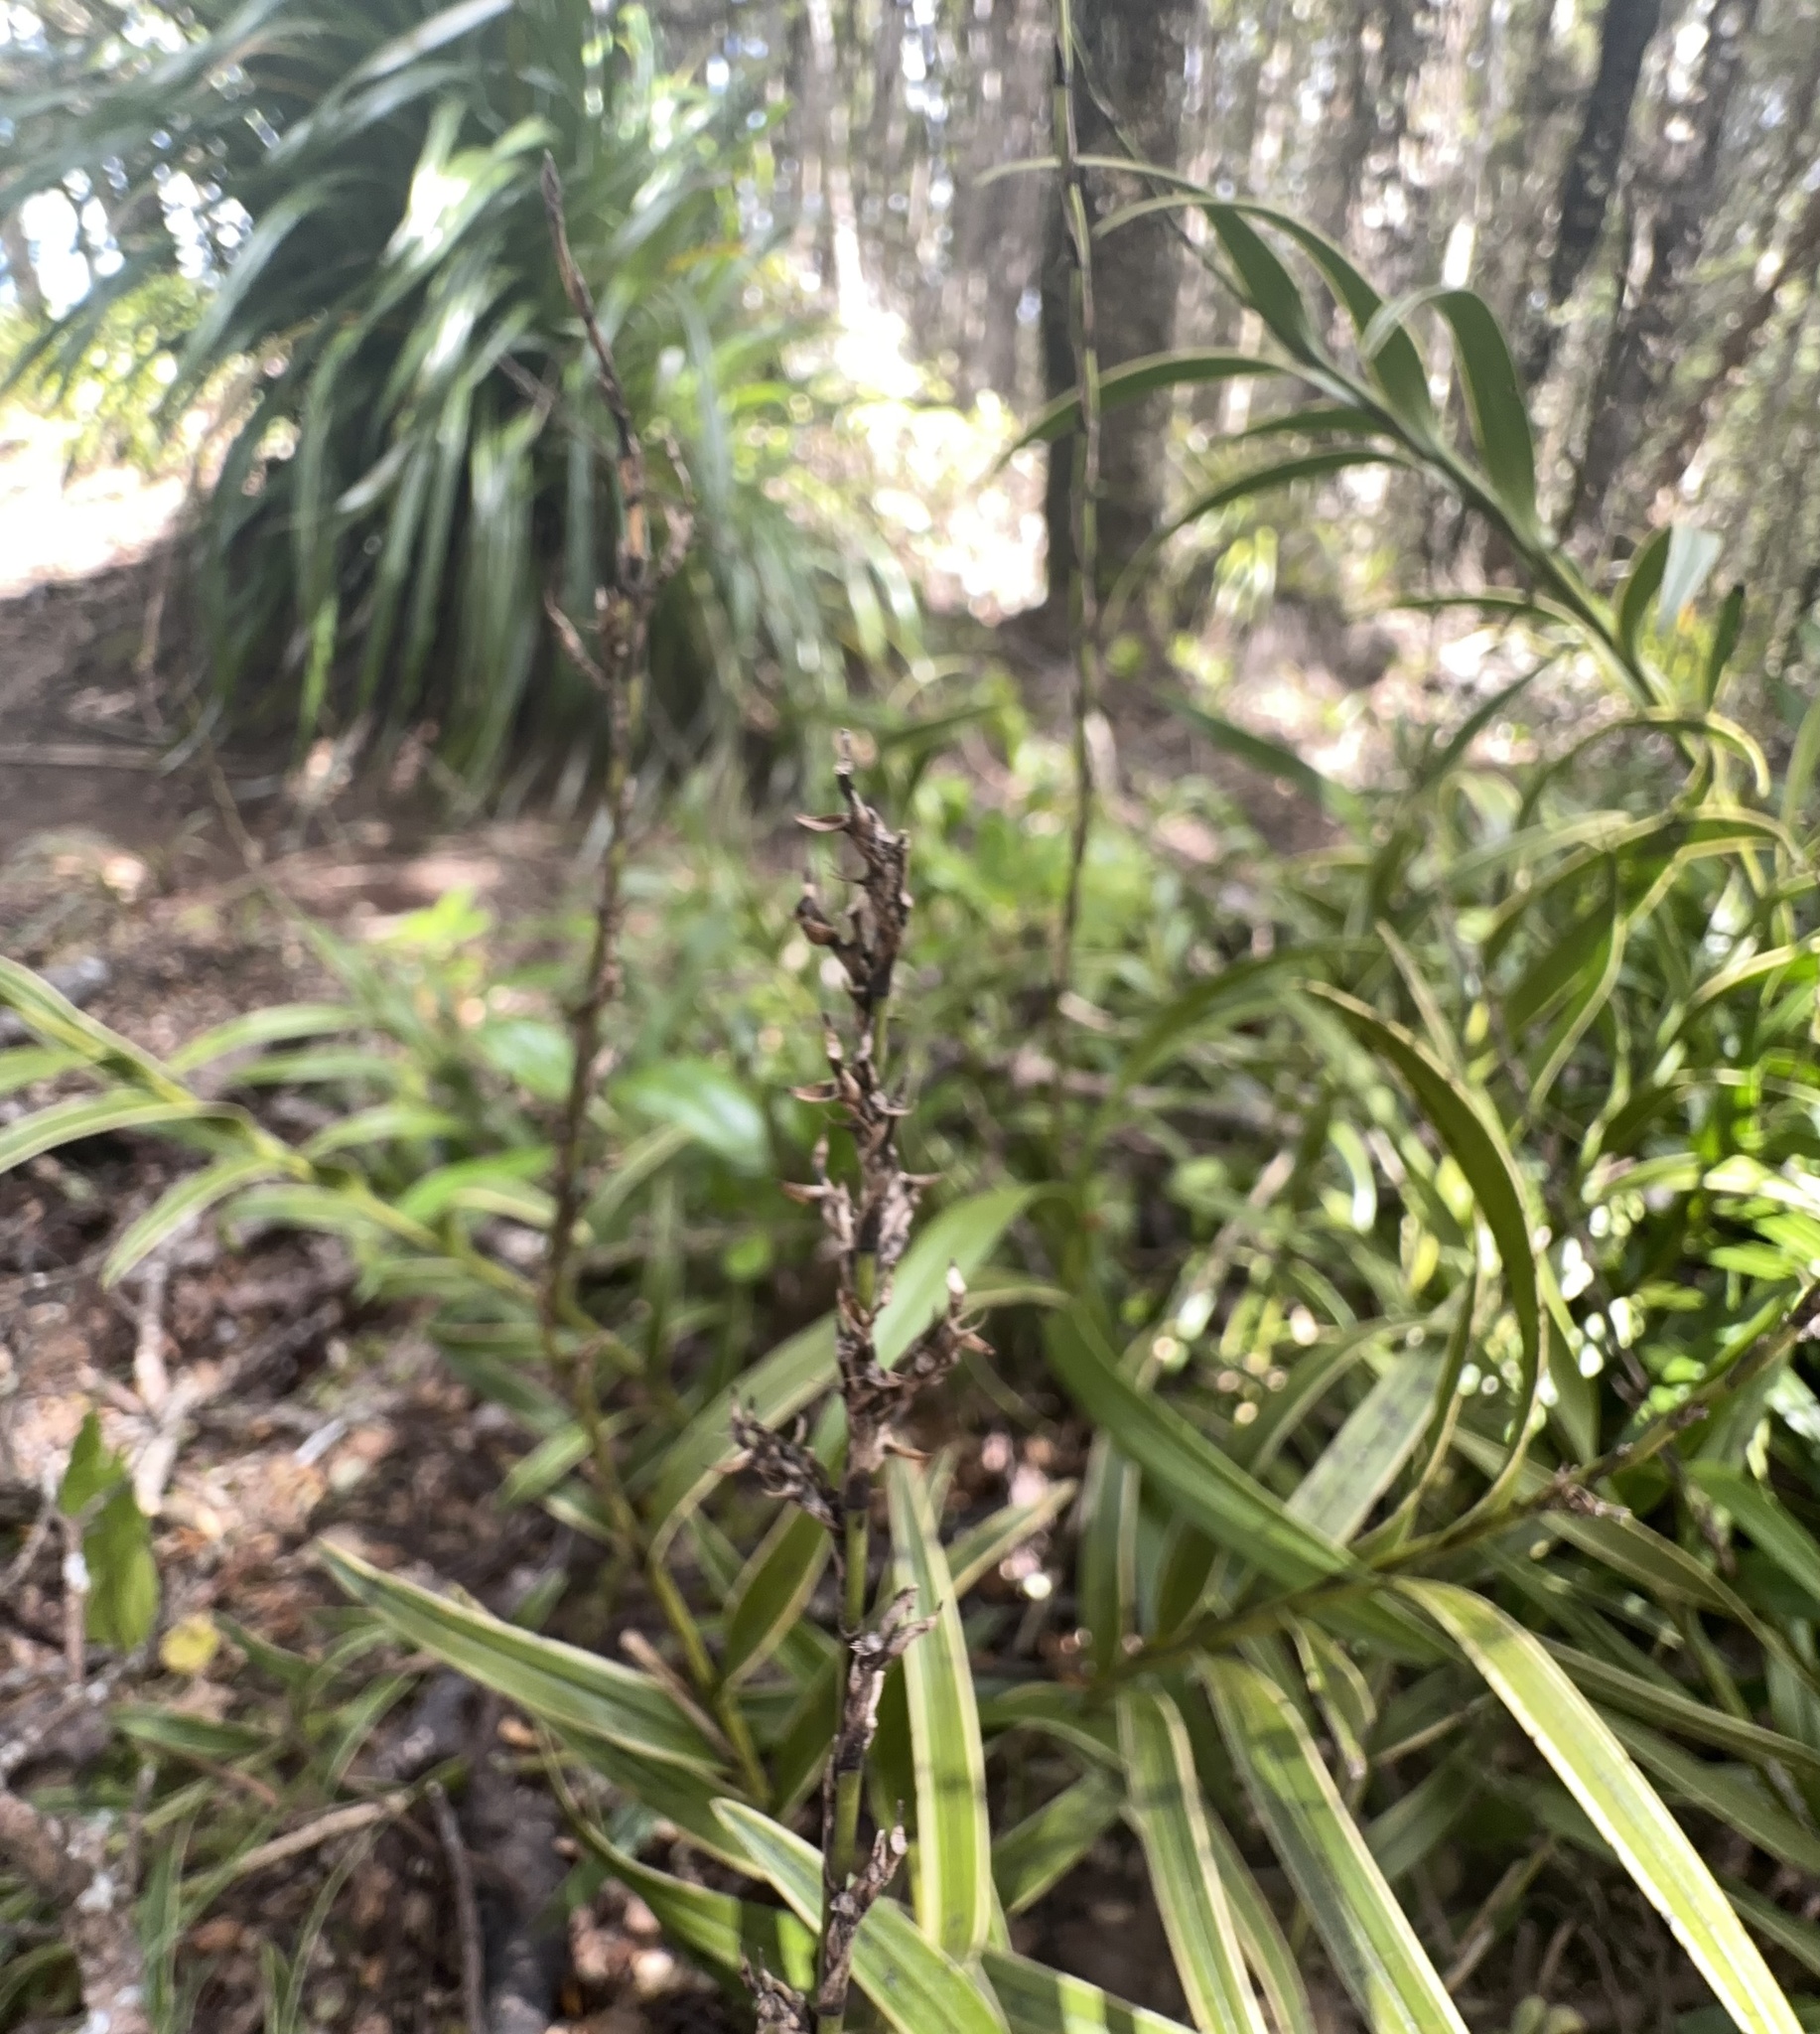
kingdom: Plantae
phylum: Tracheophyta
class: Liliopsida
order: Asparagales
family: Orchidaceae
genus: Earina
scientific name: Earina autumnalis
